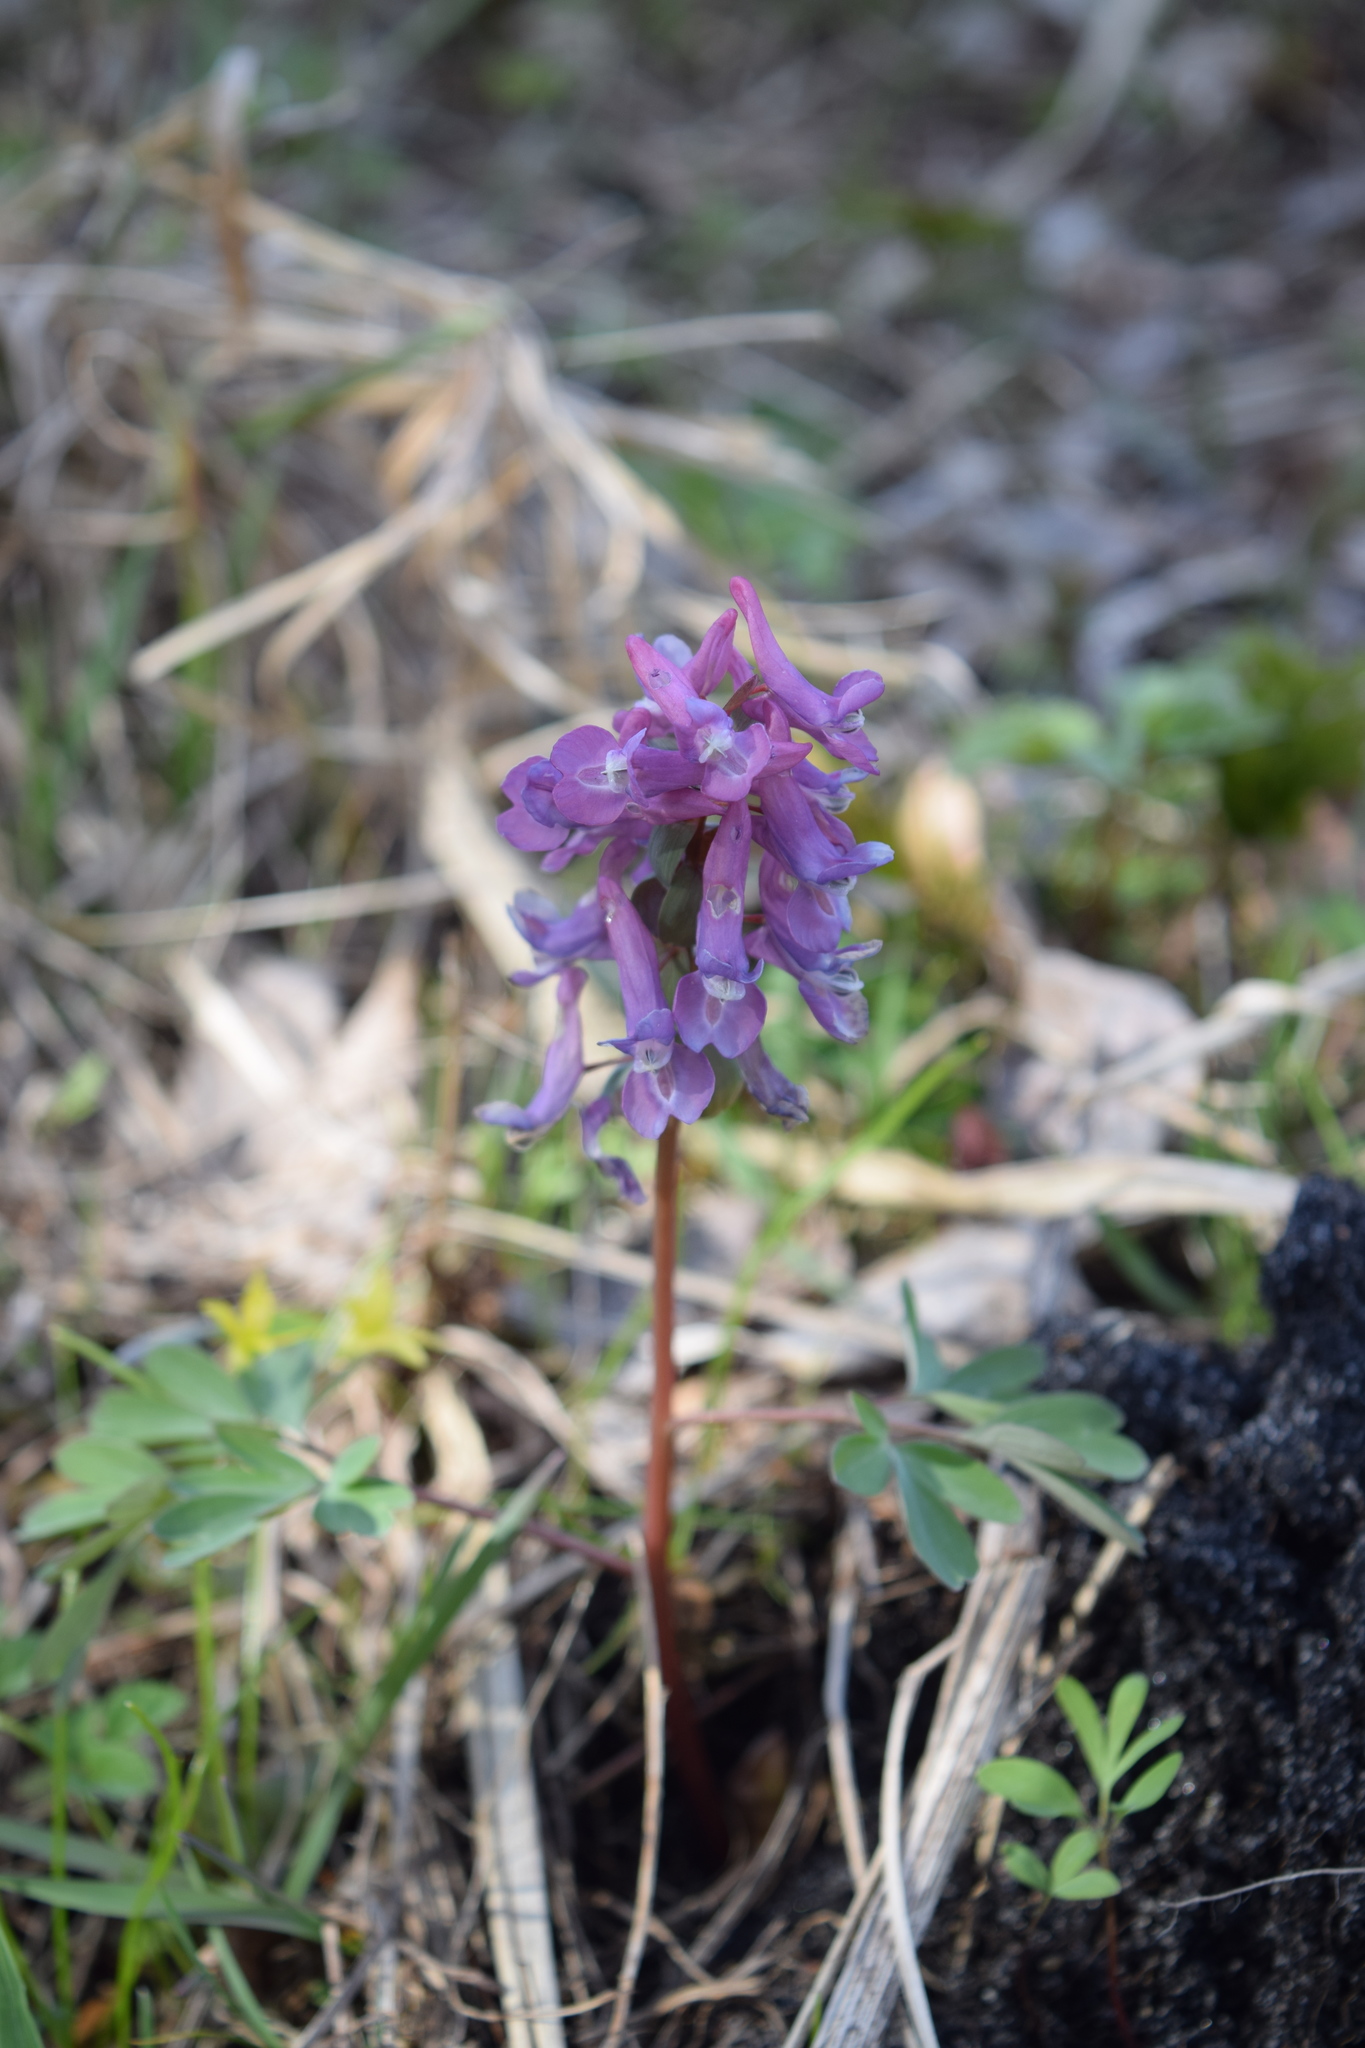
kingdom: Plantae
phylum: Tracheophyta
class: Magnoliopsida
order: Ranunculales
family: Papaveraceae
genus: Corydalis
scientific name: Corydalis solida
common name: Bird-in-a-bush
